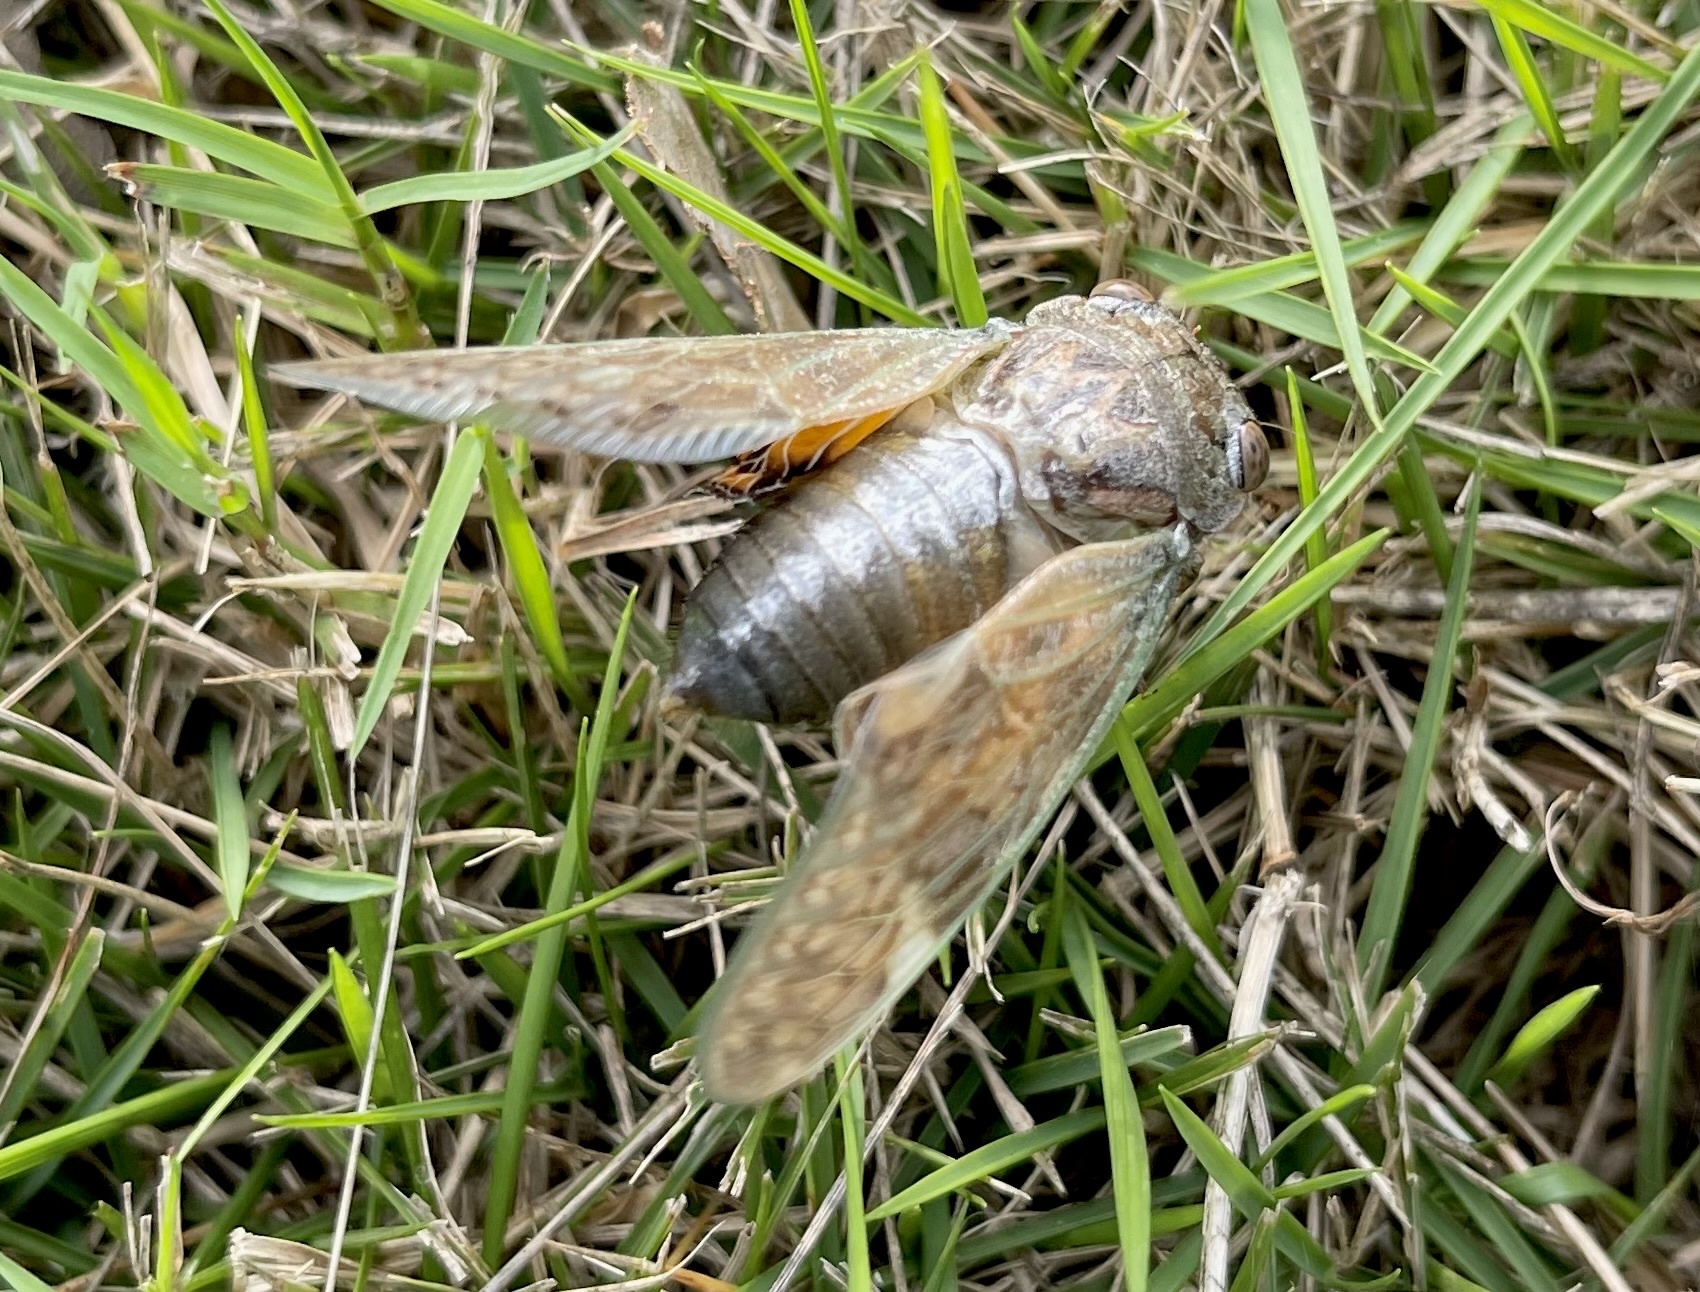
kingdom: Animalia
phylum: Arthropoda
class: Insecta
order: Hemiptera
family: Cicadidae
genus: Platypleura
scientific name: Platypleura hilpa
